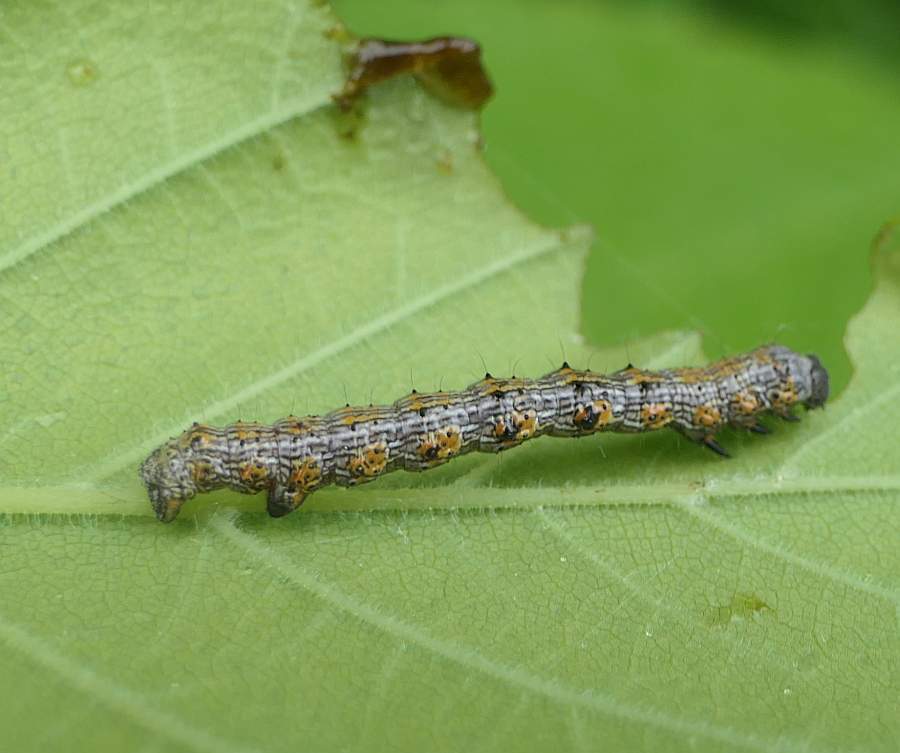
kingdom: Animalia
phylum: Arthropoda
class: Insecta
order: Lepidoptera
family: Geometridae
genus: Phigalia
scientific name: Phigalia titea
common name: Spiny looper
